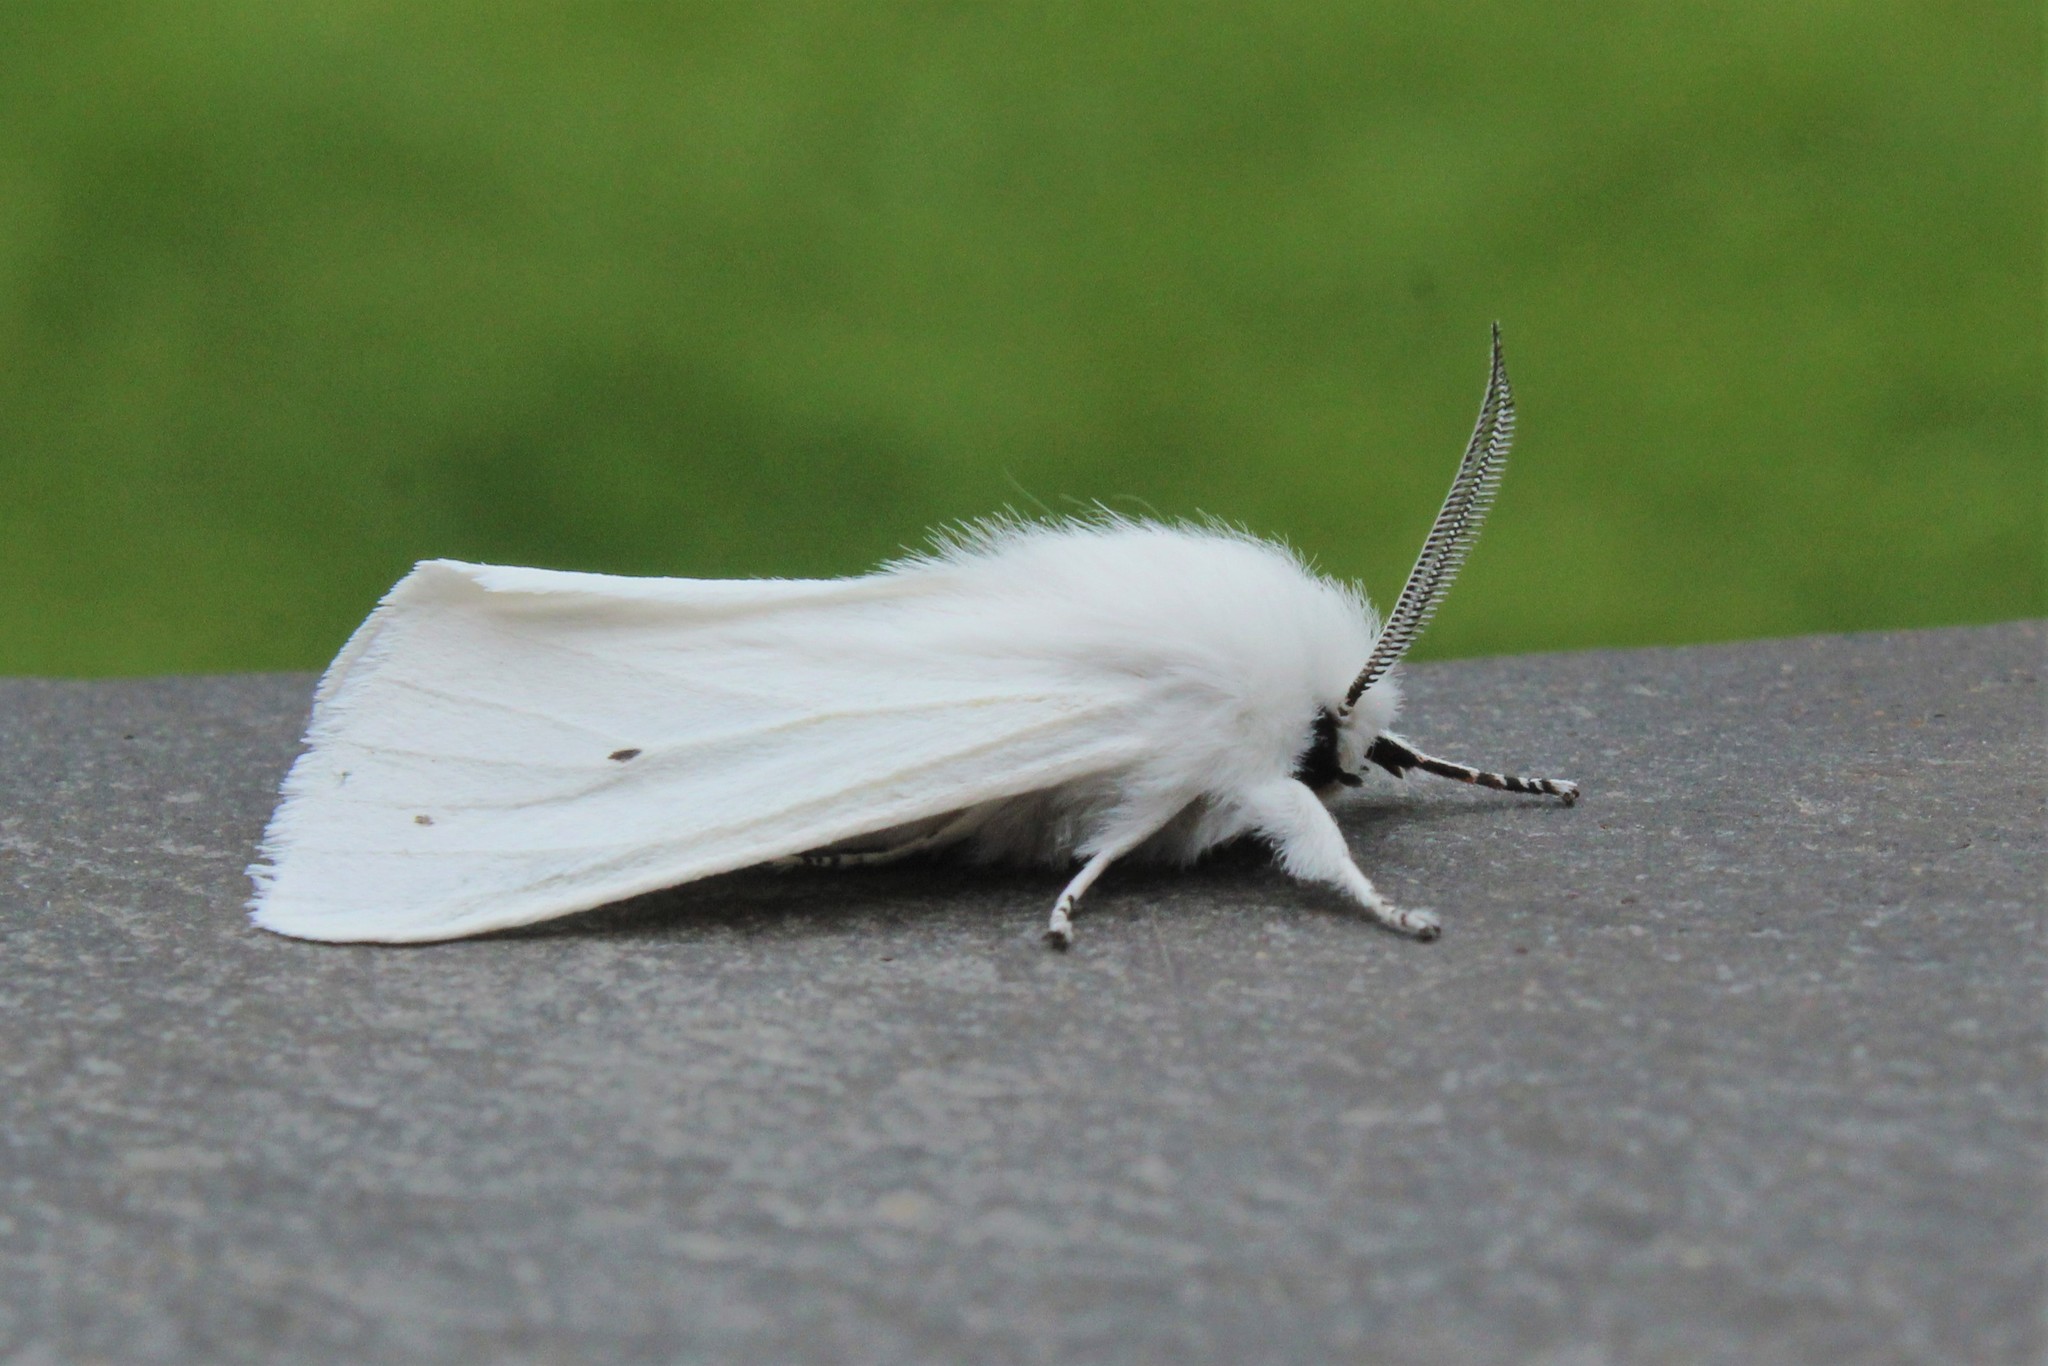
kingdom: Animalia
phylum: Arthropoda
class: Insecta
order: Lepidoptera
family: Erebidae
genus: Spilosoma
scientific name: Spilosoma virginica
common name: Virginia tiger moth
